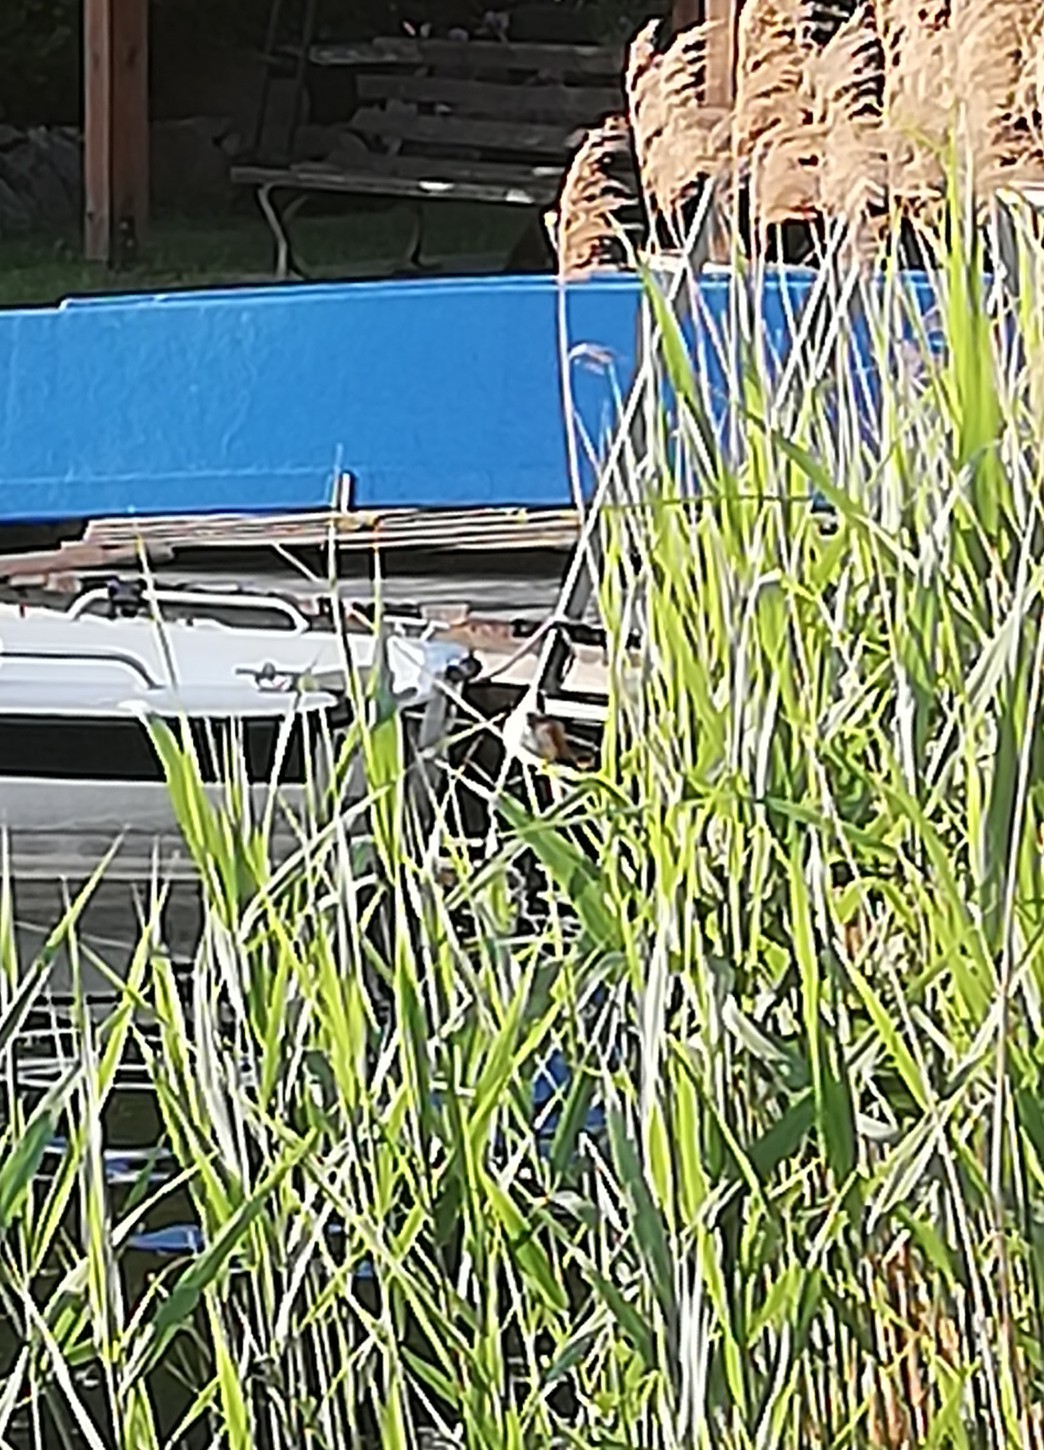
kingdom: Animalia
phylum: Chordata
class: Aves
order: Passeriformes
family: Acrocephalidae
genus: Acrocephalus
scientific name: Acrocephalus arundinaceus
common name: Great reed warbler
